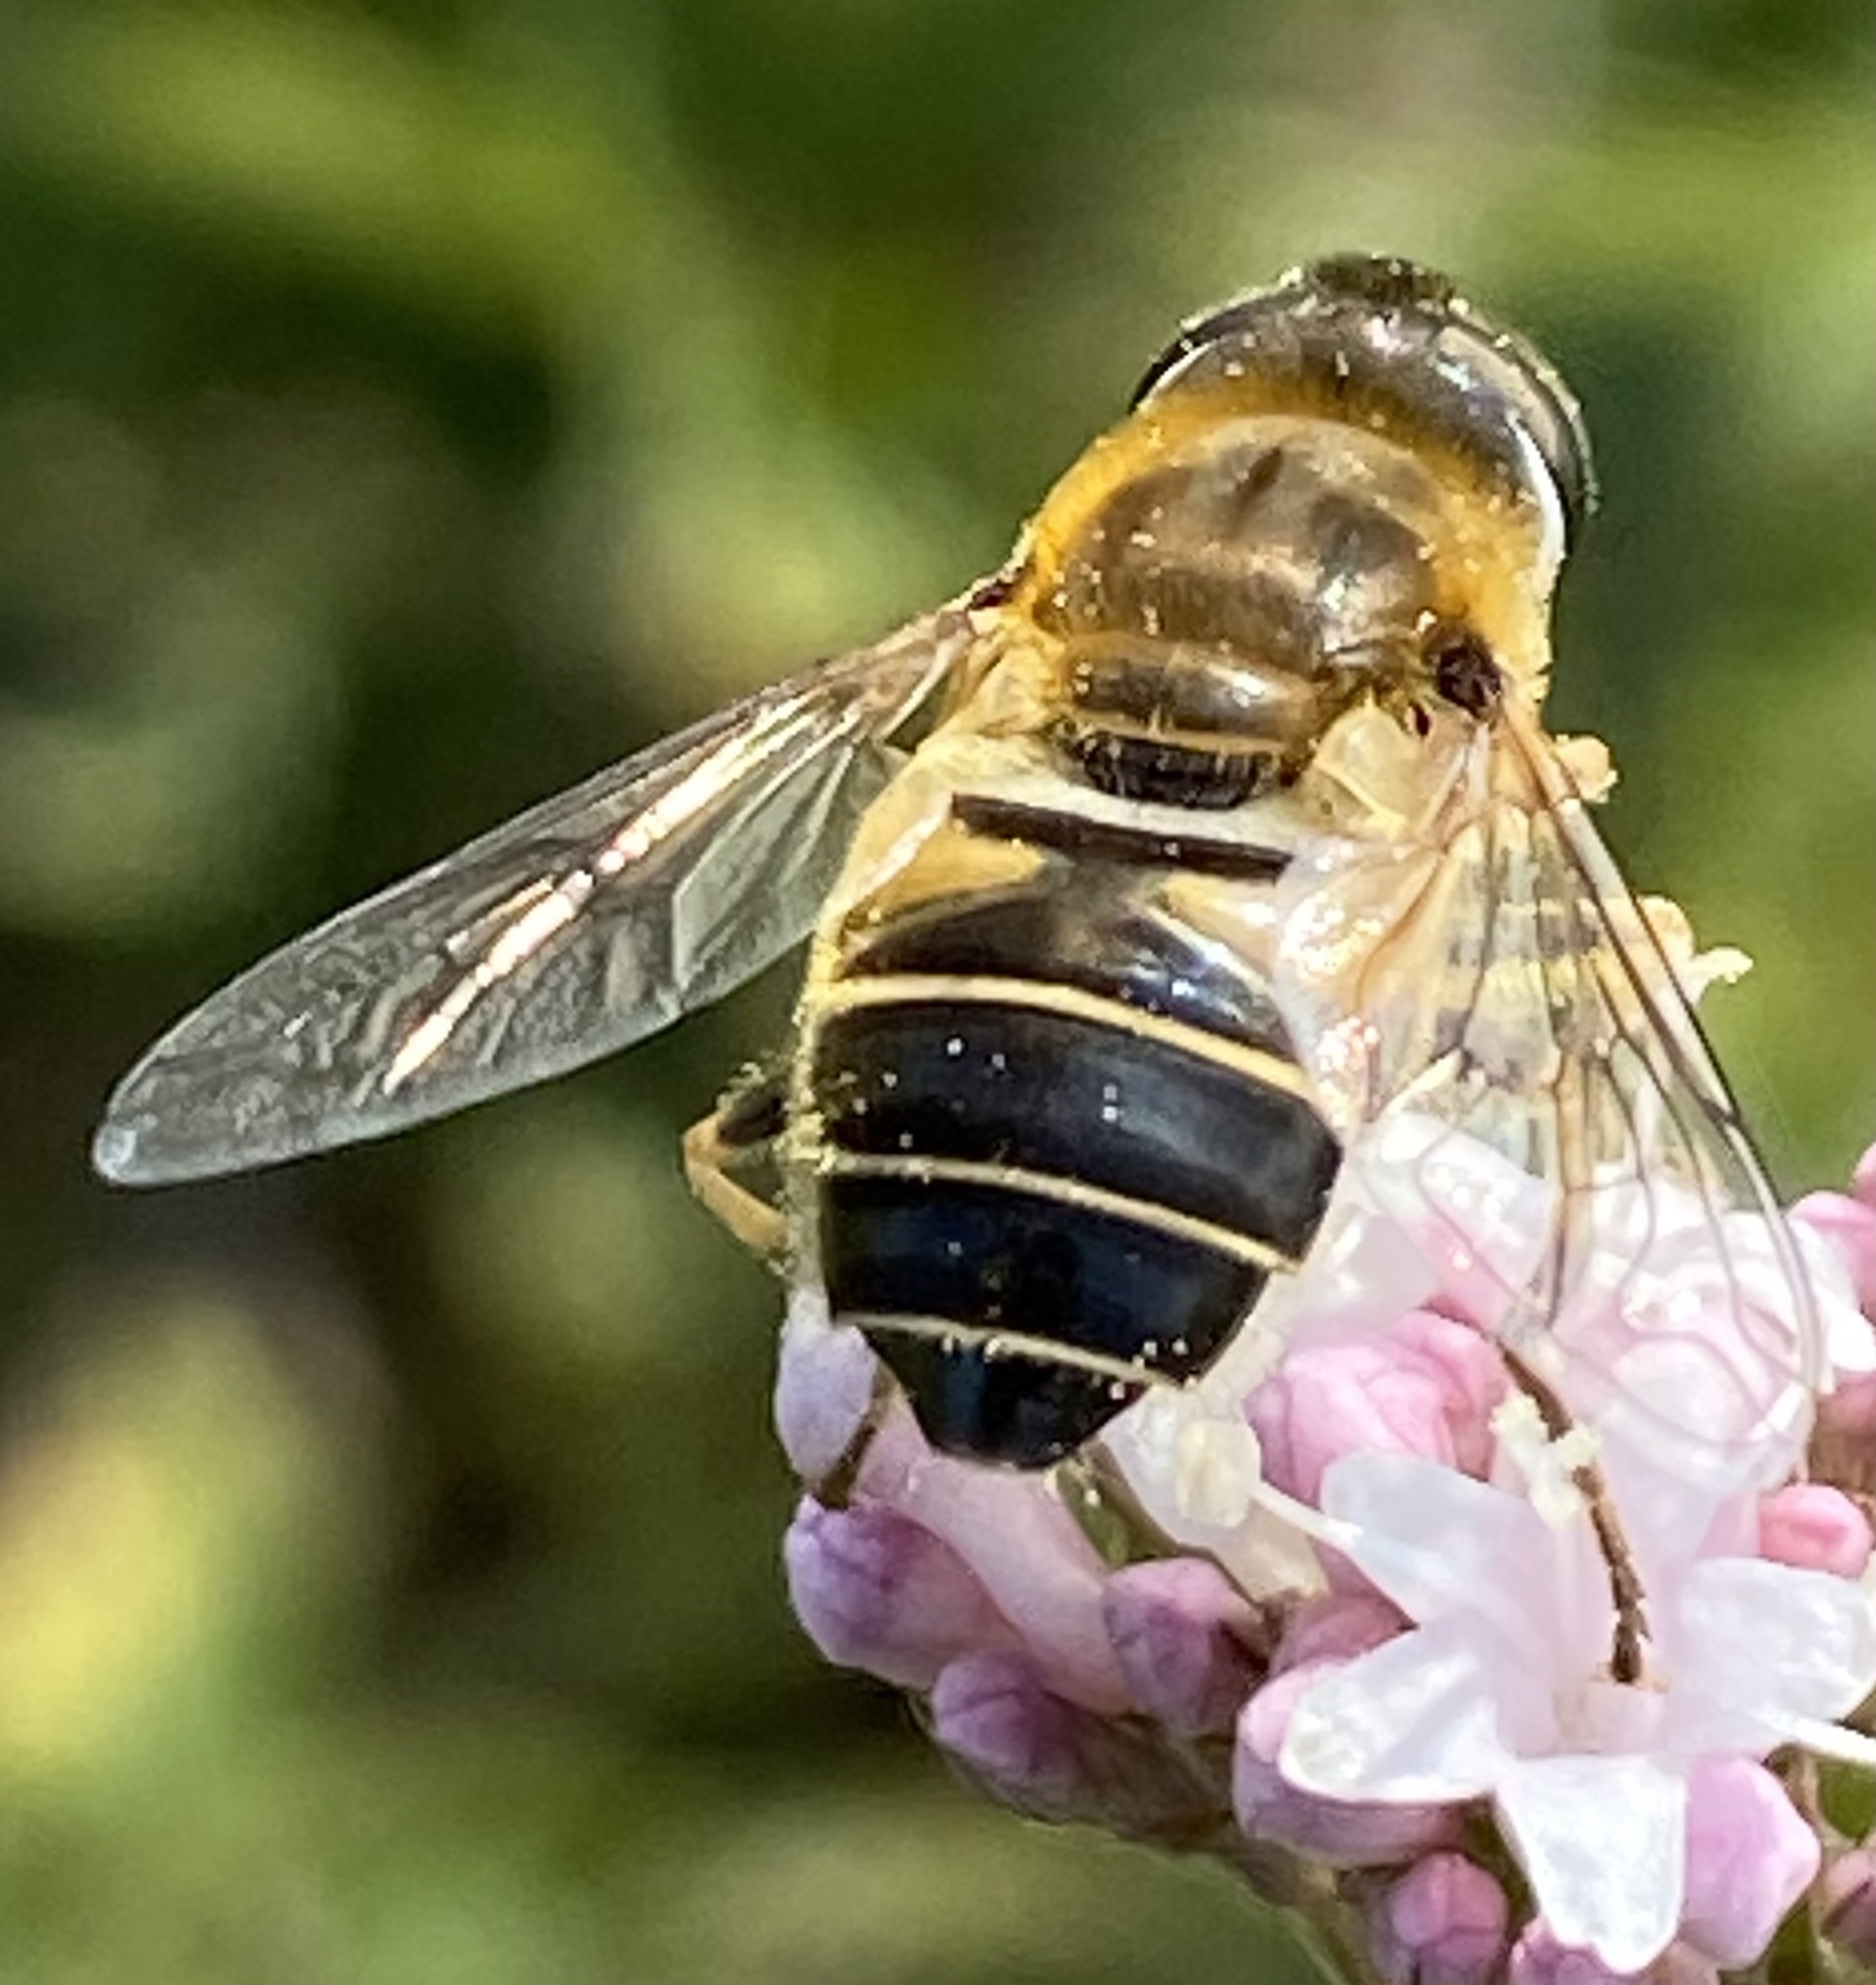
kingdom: Animalia
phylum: Arthropoda
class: Insecta
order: Diptera
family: Syrphidae
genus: Eristalis
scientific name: Eristalis nemorum
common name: Orange-spined drone fly
